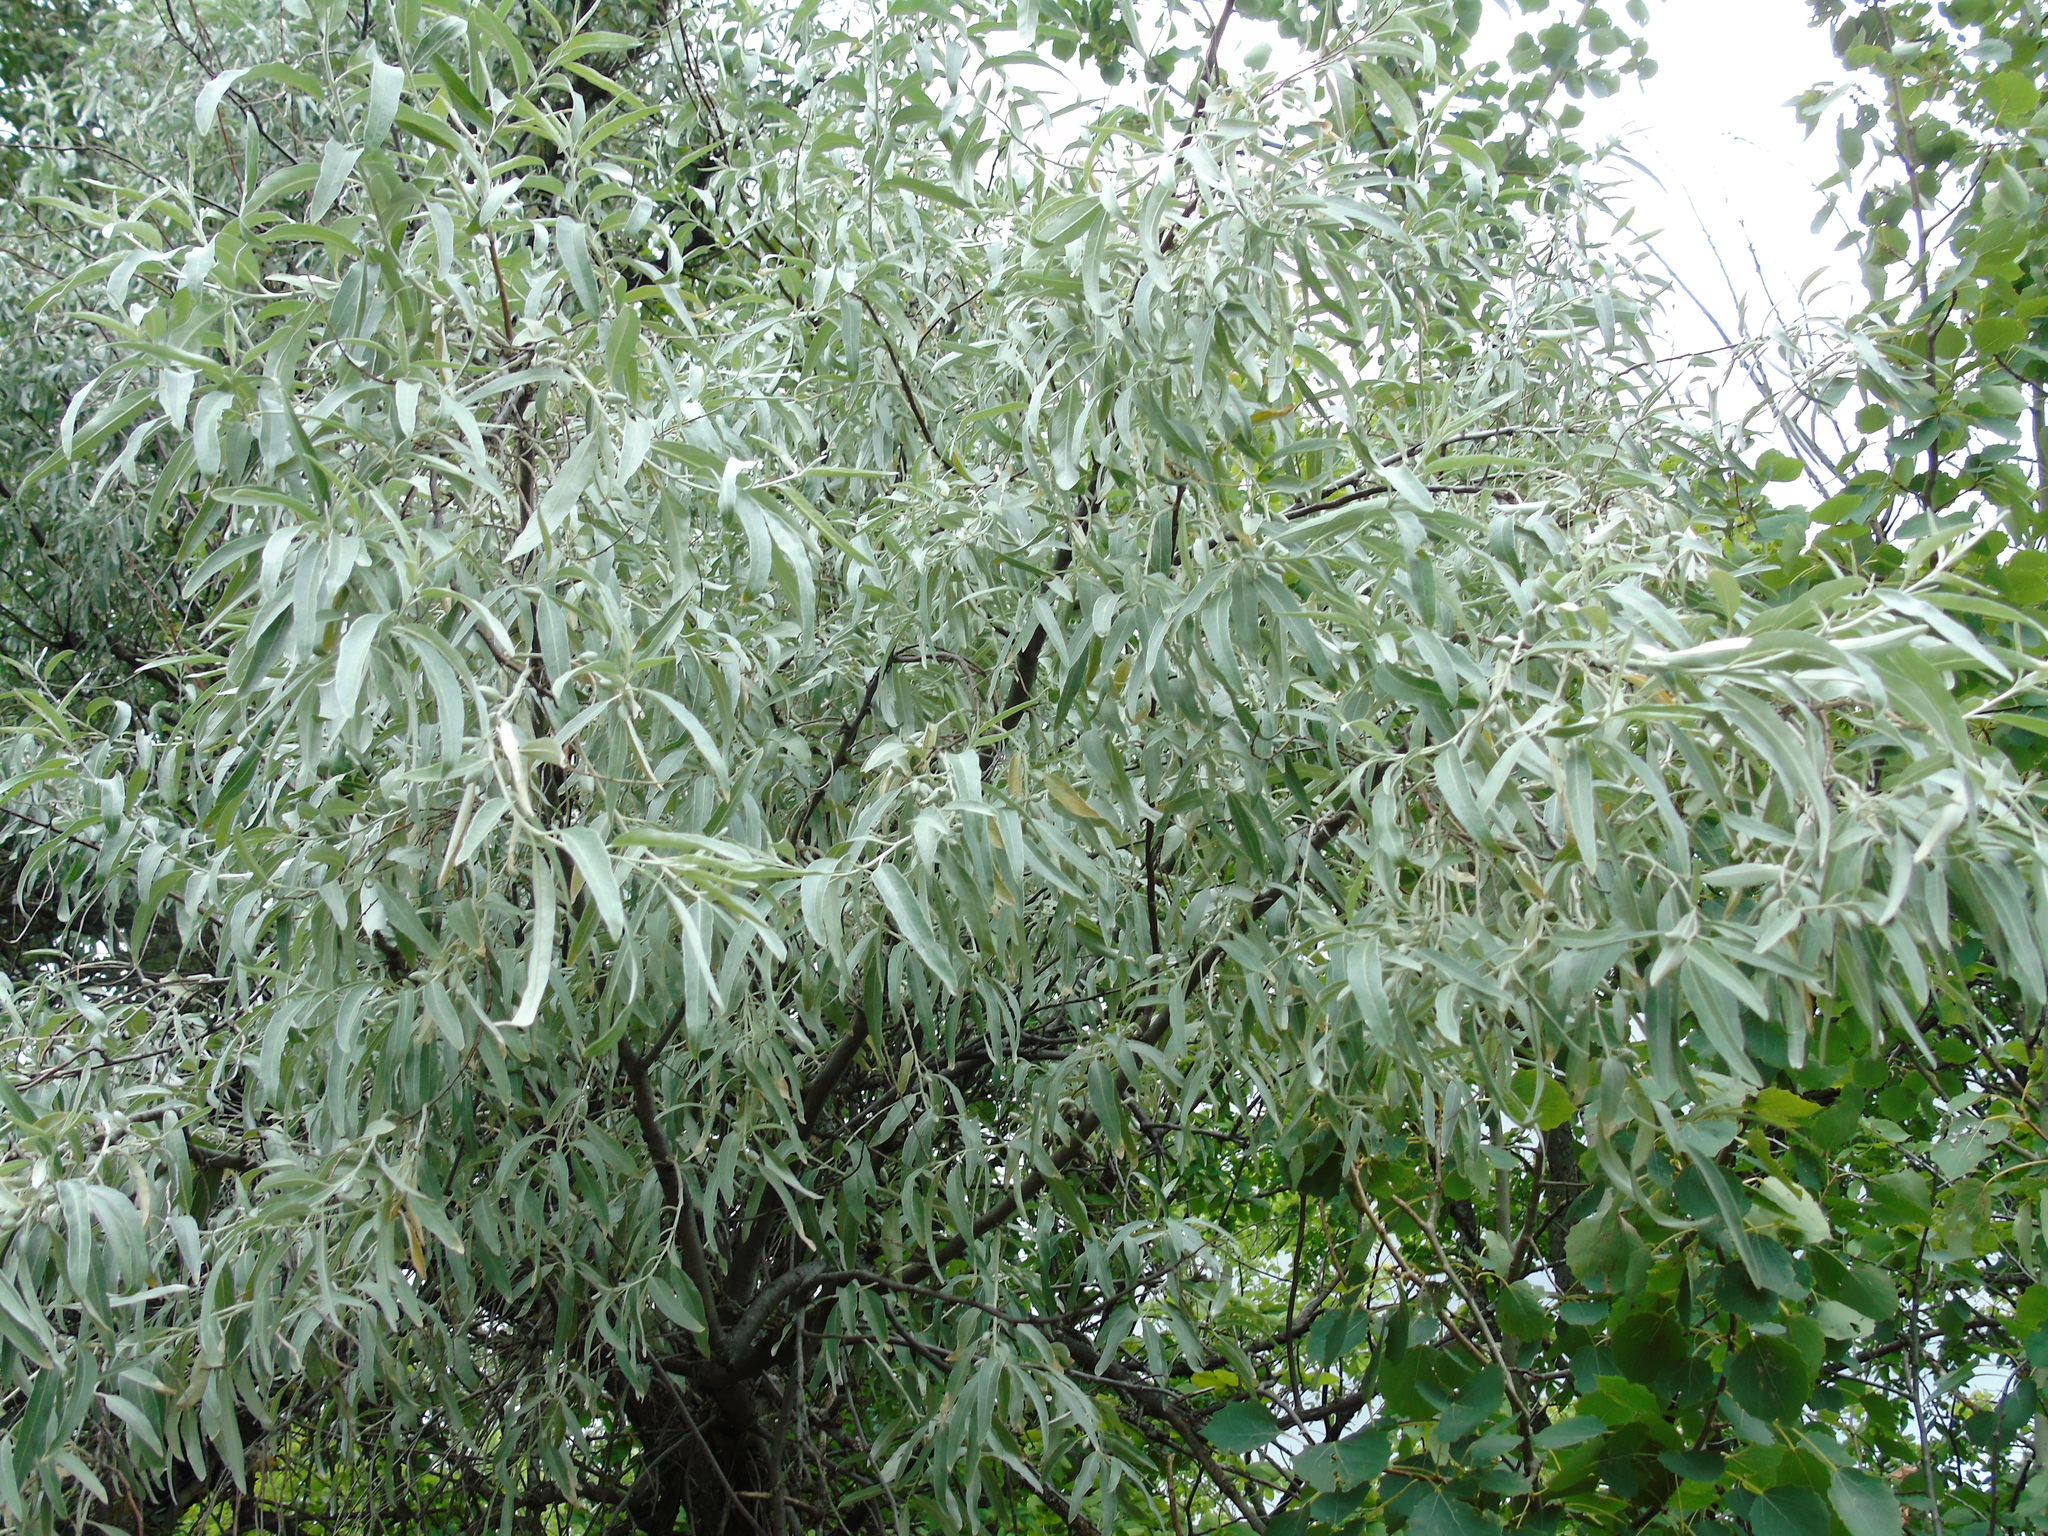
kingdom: Plantae
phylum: Tracheophyta
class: Magnoliopsida
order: Rosales
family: Elaeagnaceae
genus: Elaeagnus
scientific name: Elaeagnus angustifolia
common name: Russian olive
